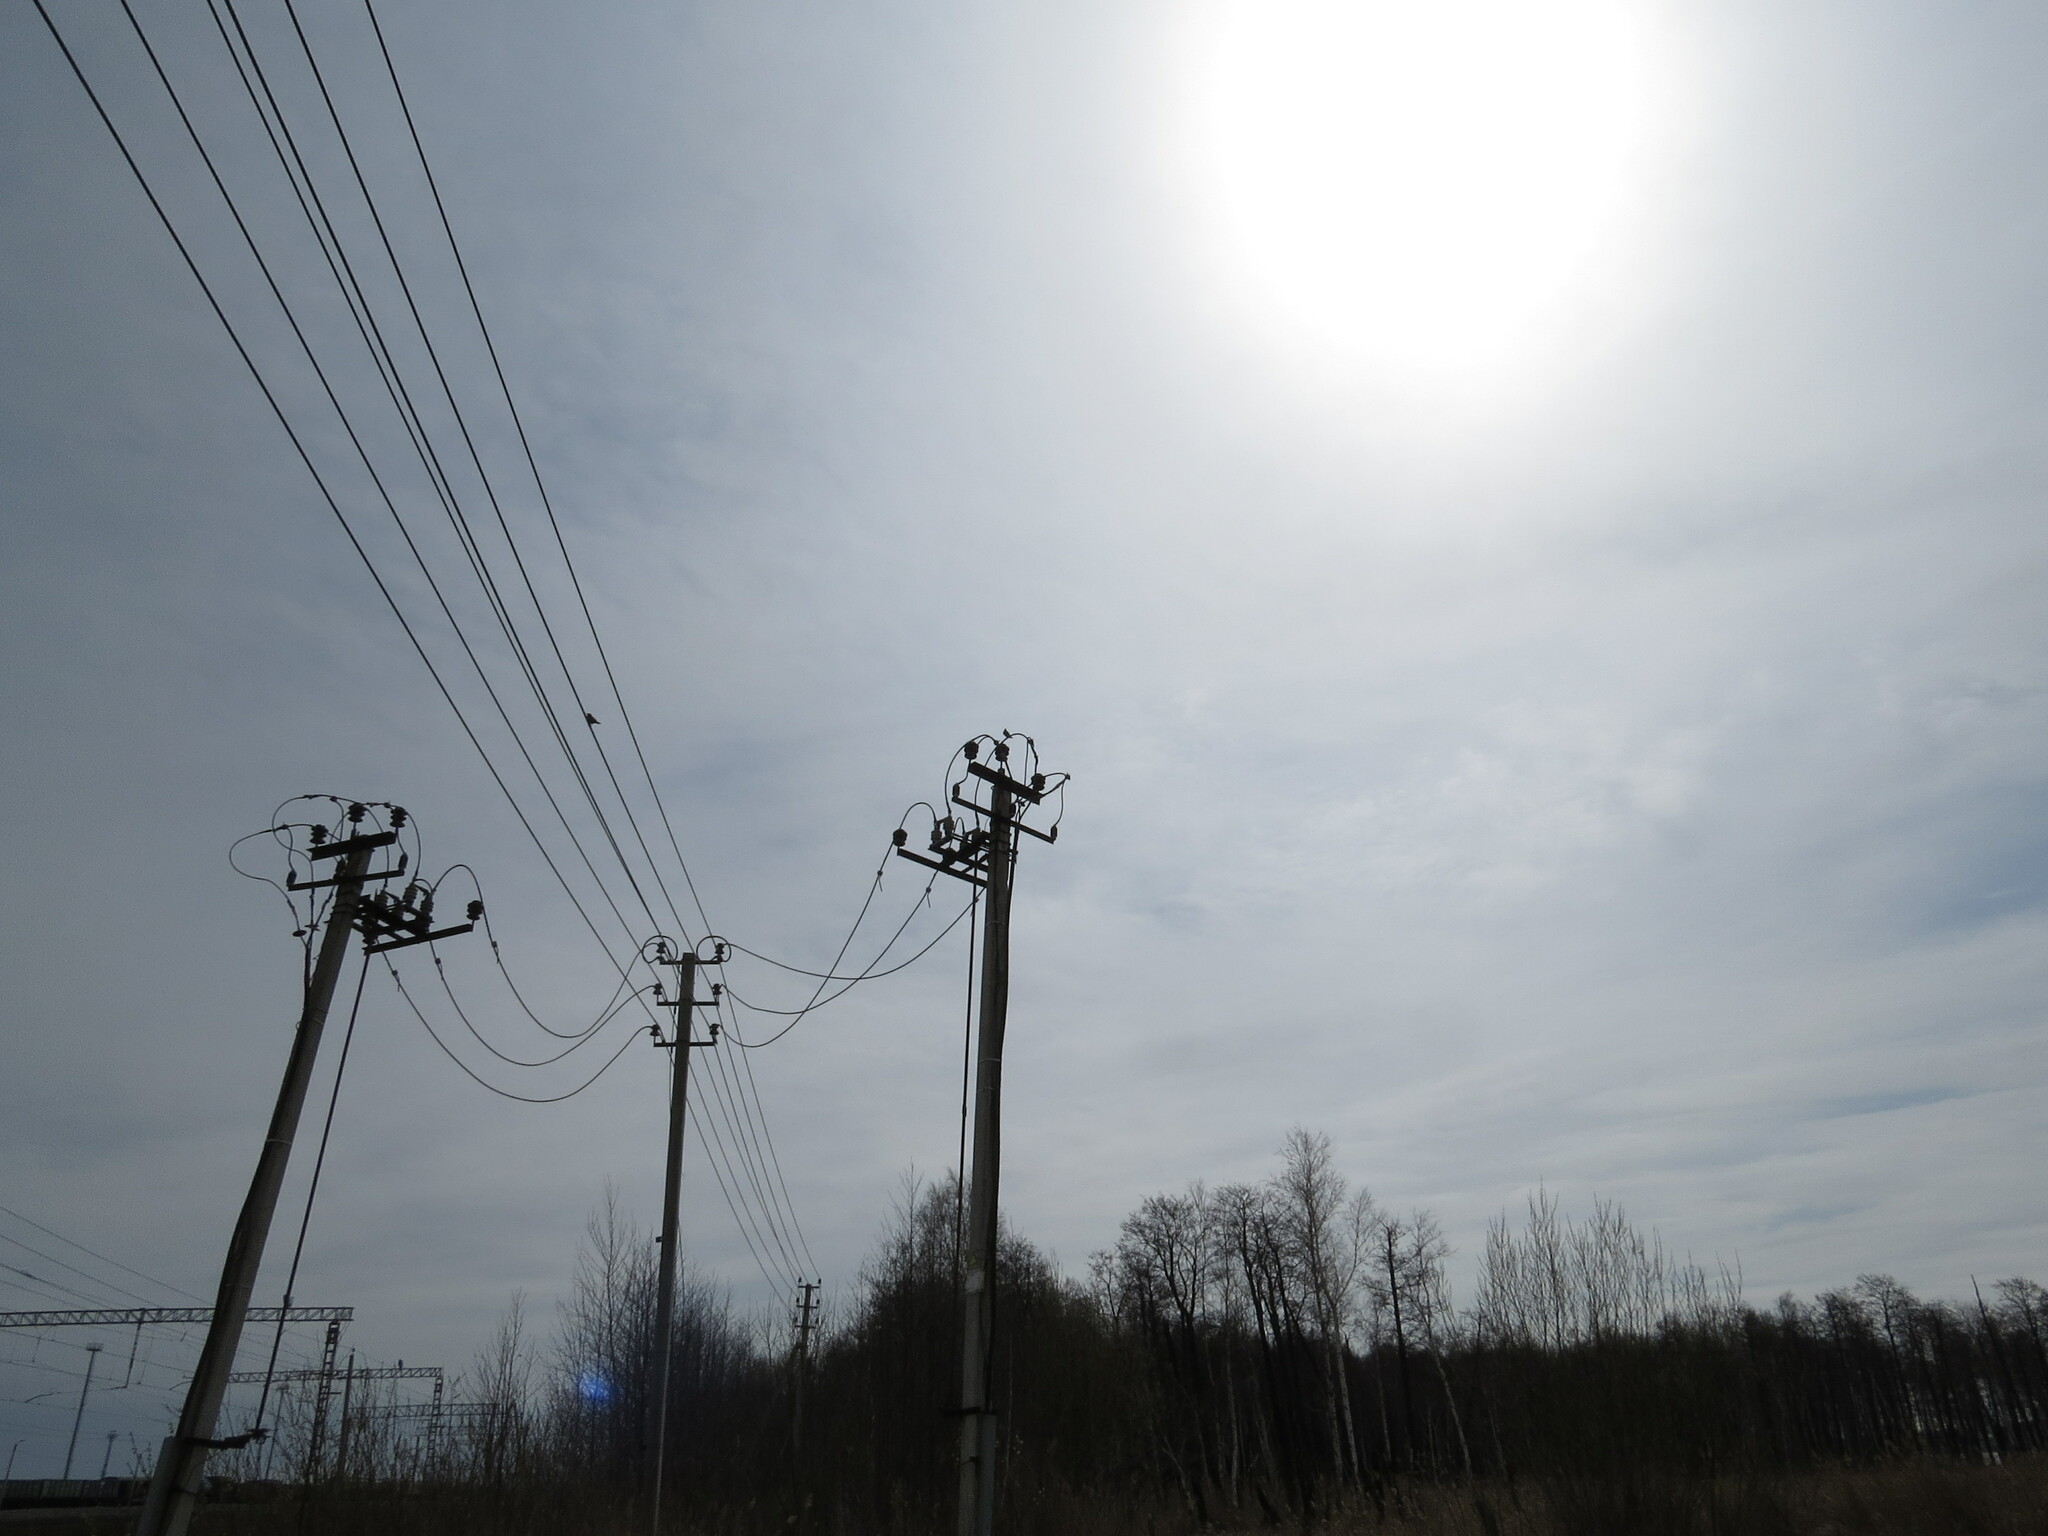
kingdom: Animalia
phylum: Chordata
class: Aves
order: Passeriformes
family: Sturnidae
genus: Sturnus
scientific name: Sturnus vulgaris
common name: Common starling
